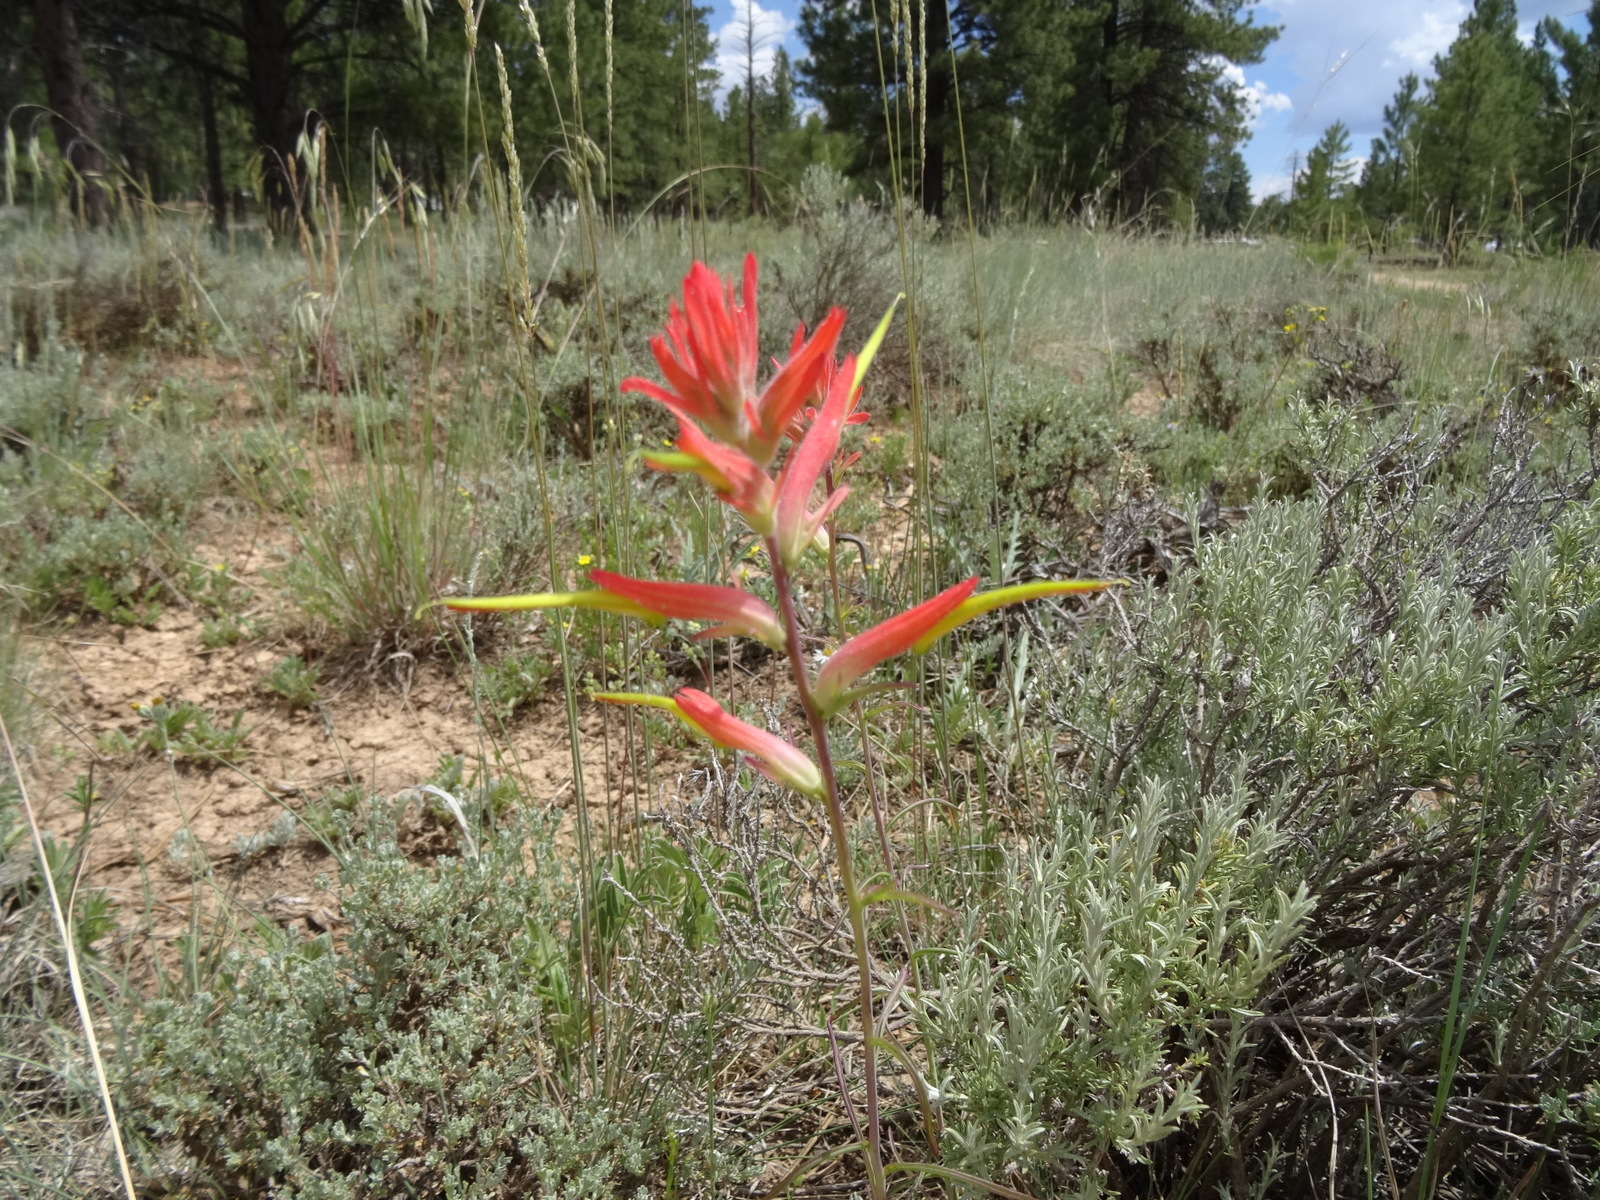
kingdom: Plantae
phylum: Tracheophyta
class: Magnoliopsida
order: Lamiales
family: Orobanchaceae
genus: Castilleja
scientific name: Castilleja linariifolia
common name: Wyoming paintbrush
